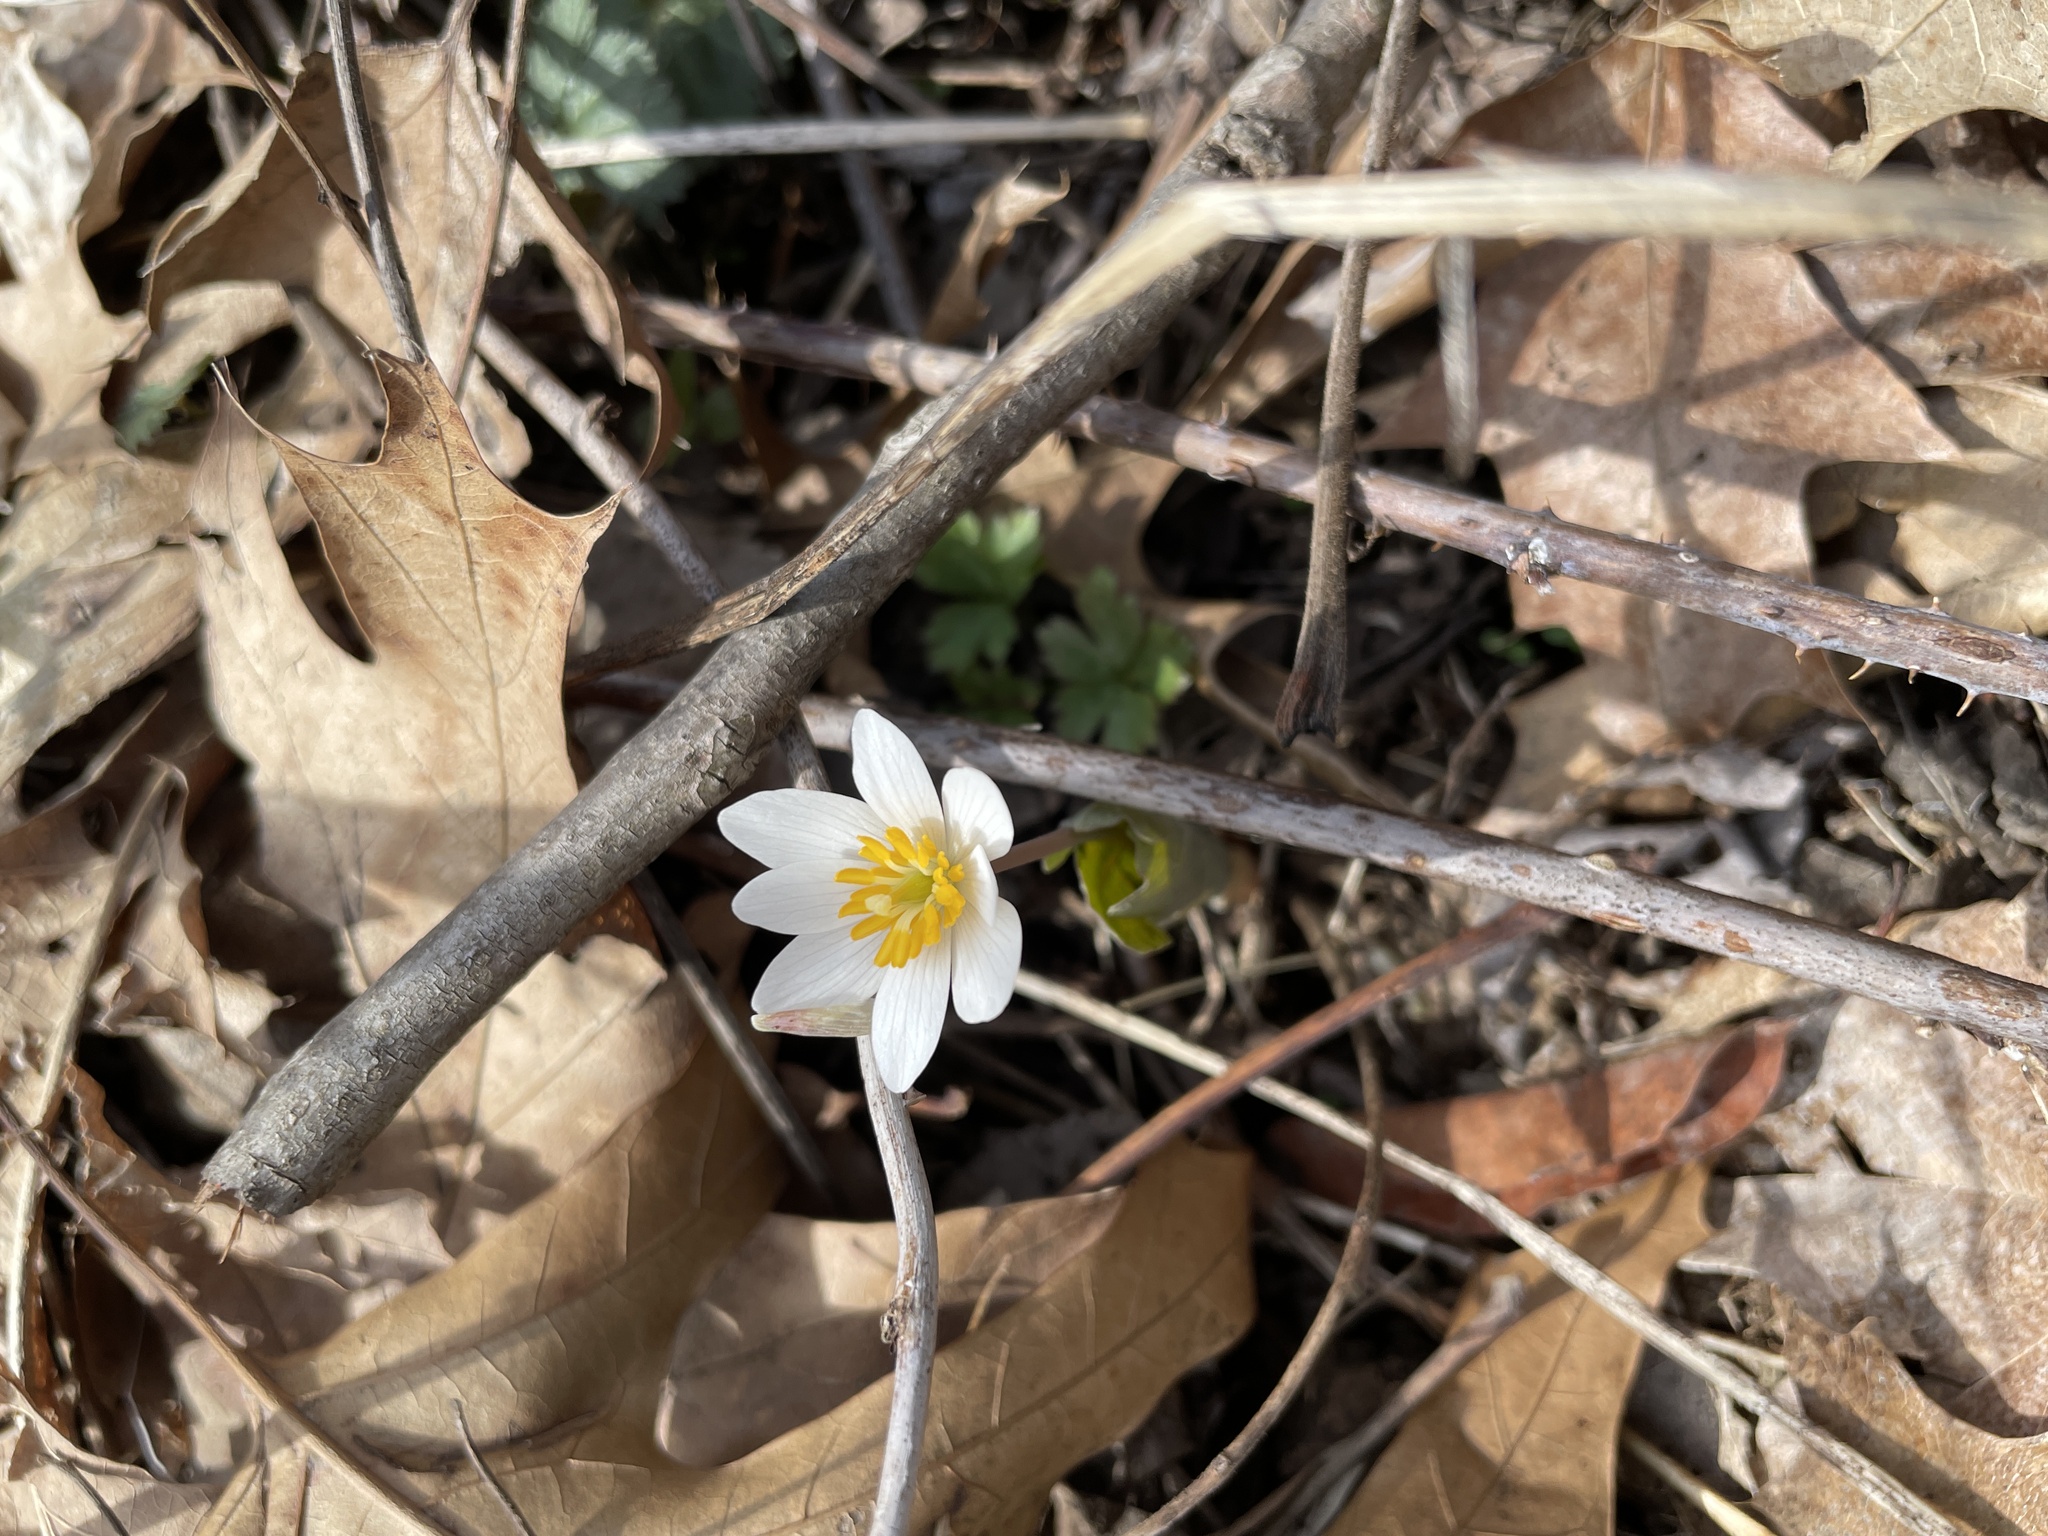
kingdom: Plantae
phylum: Tracheophyta
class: Magnoliopsida
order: Ranunculales
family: Papaveraceae
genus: Sanguinaria
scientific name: Sanguinaria canadensis
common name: Bloodroot
